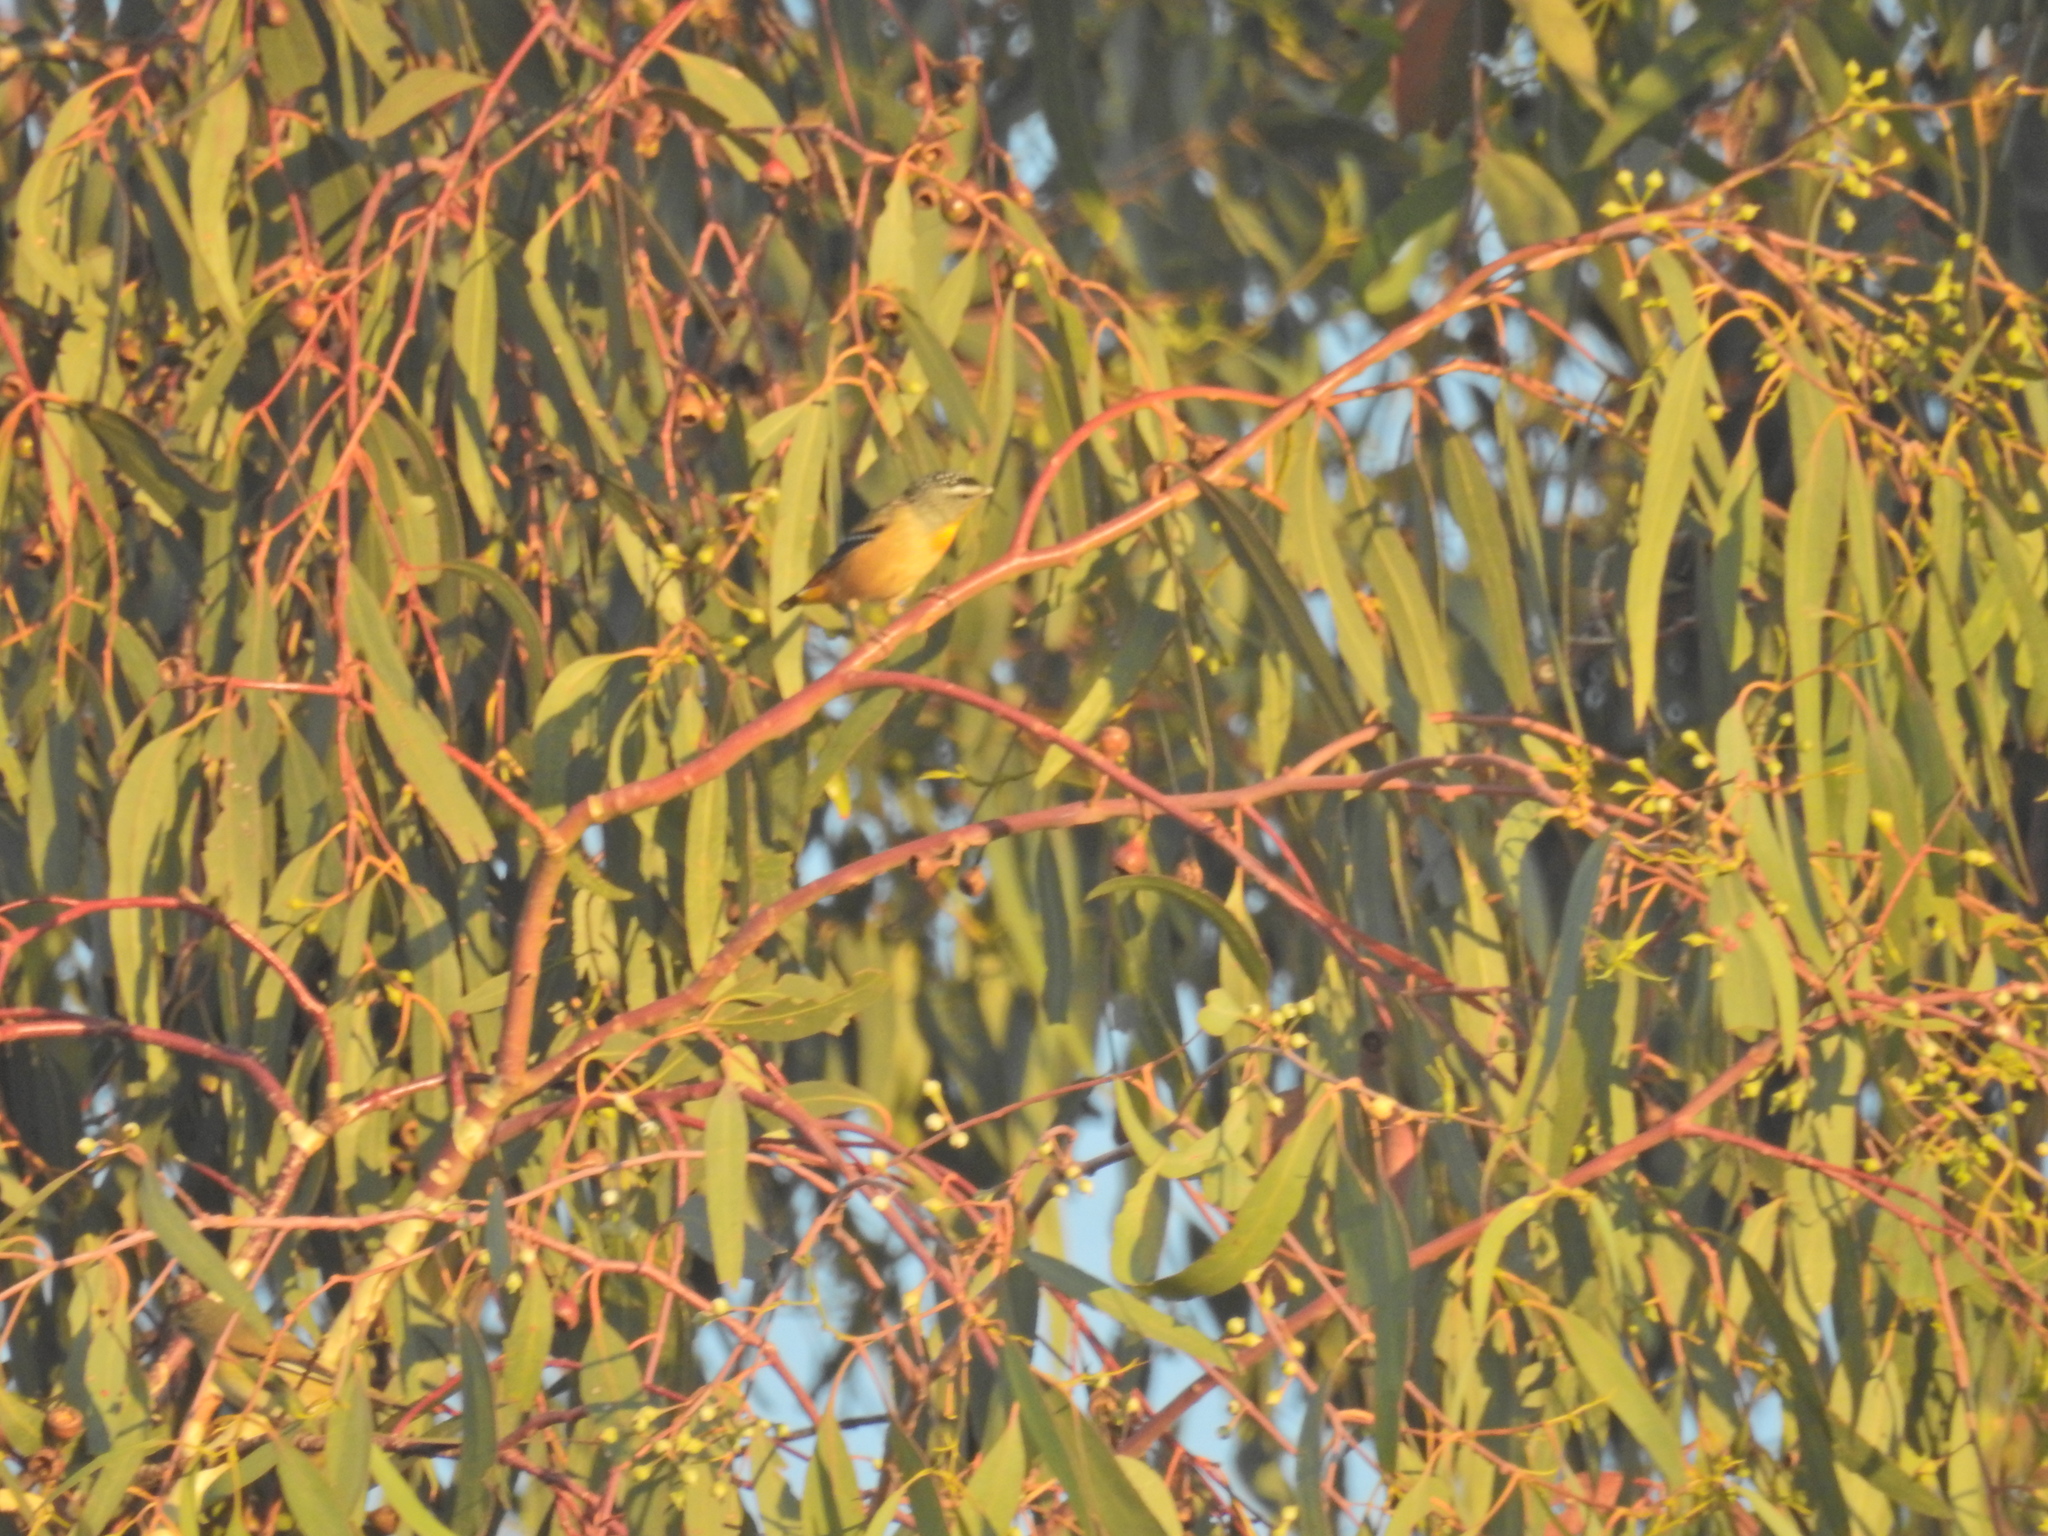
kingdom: Animalia
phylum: Chordata
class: Aves
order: Passeriformes
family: Pardalotidae
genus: Pardalotus
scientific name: Pardalotus punctatus
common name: Spotted pardalote
